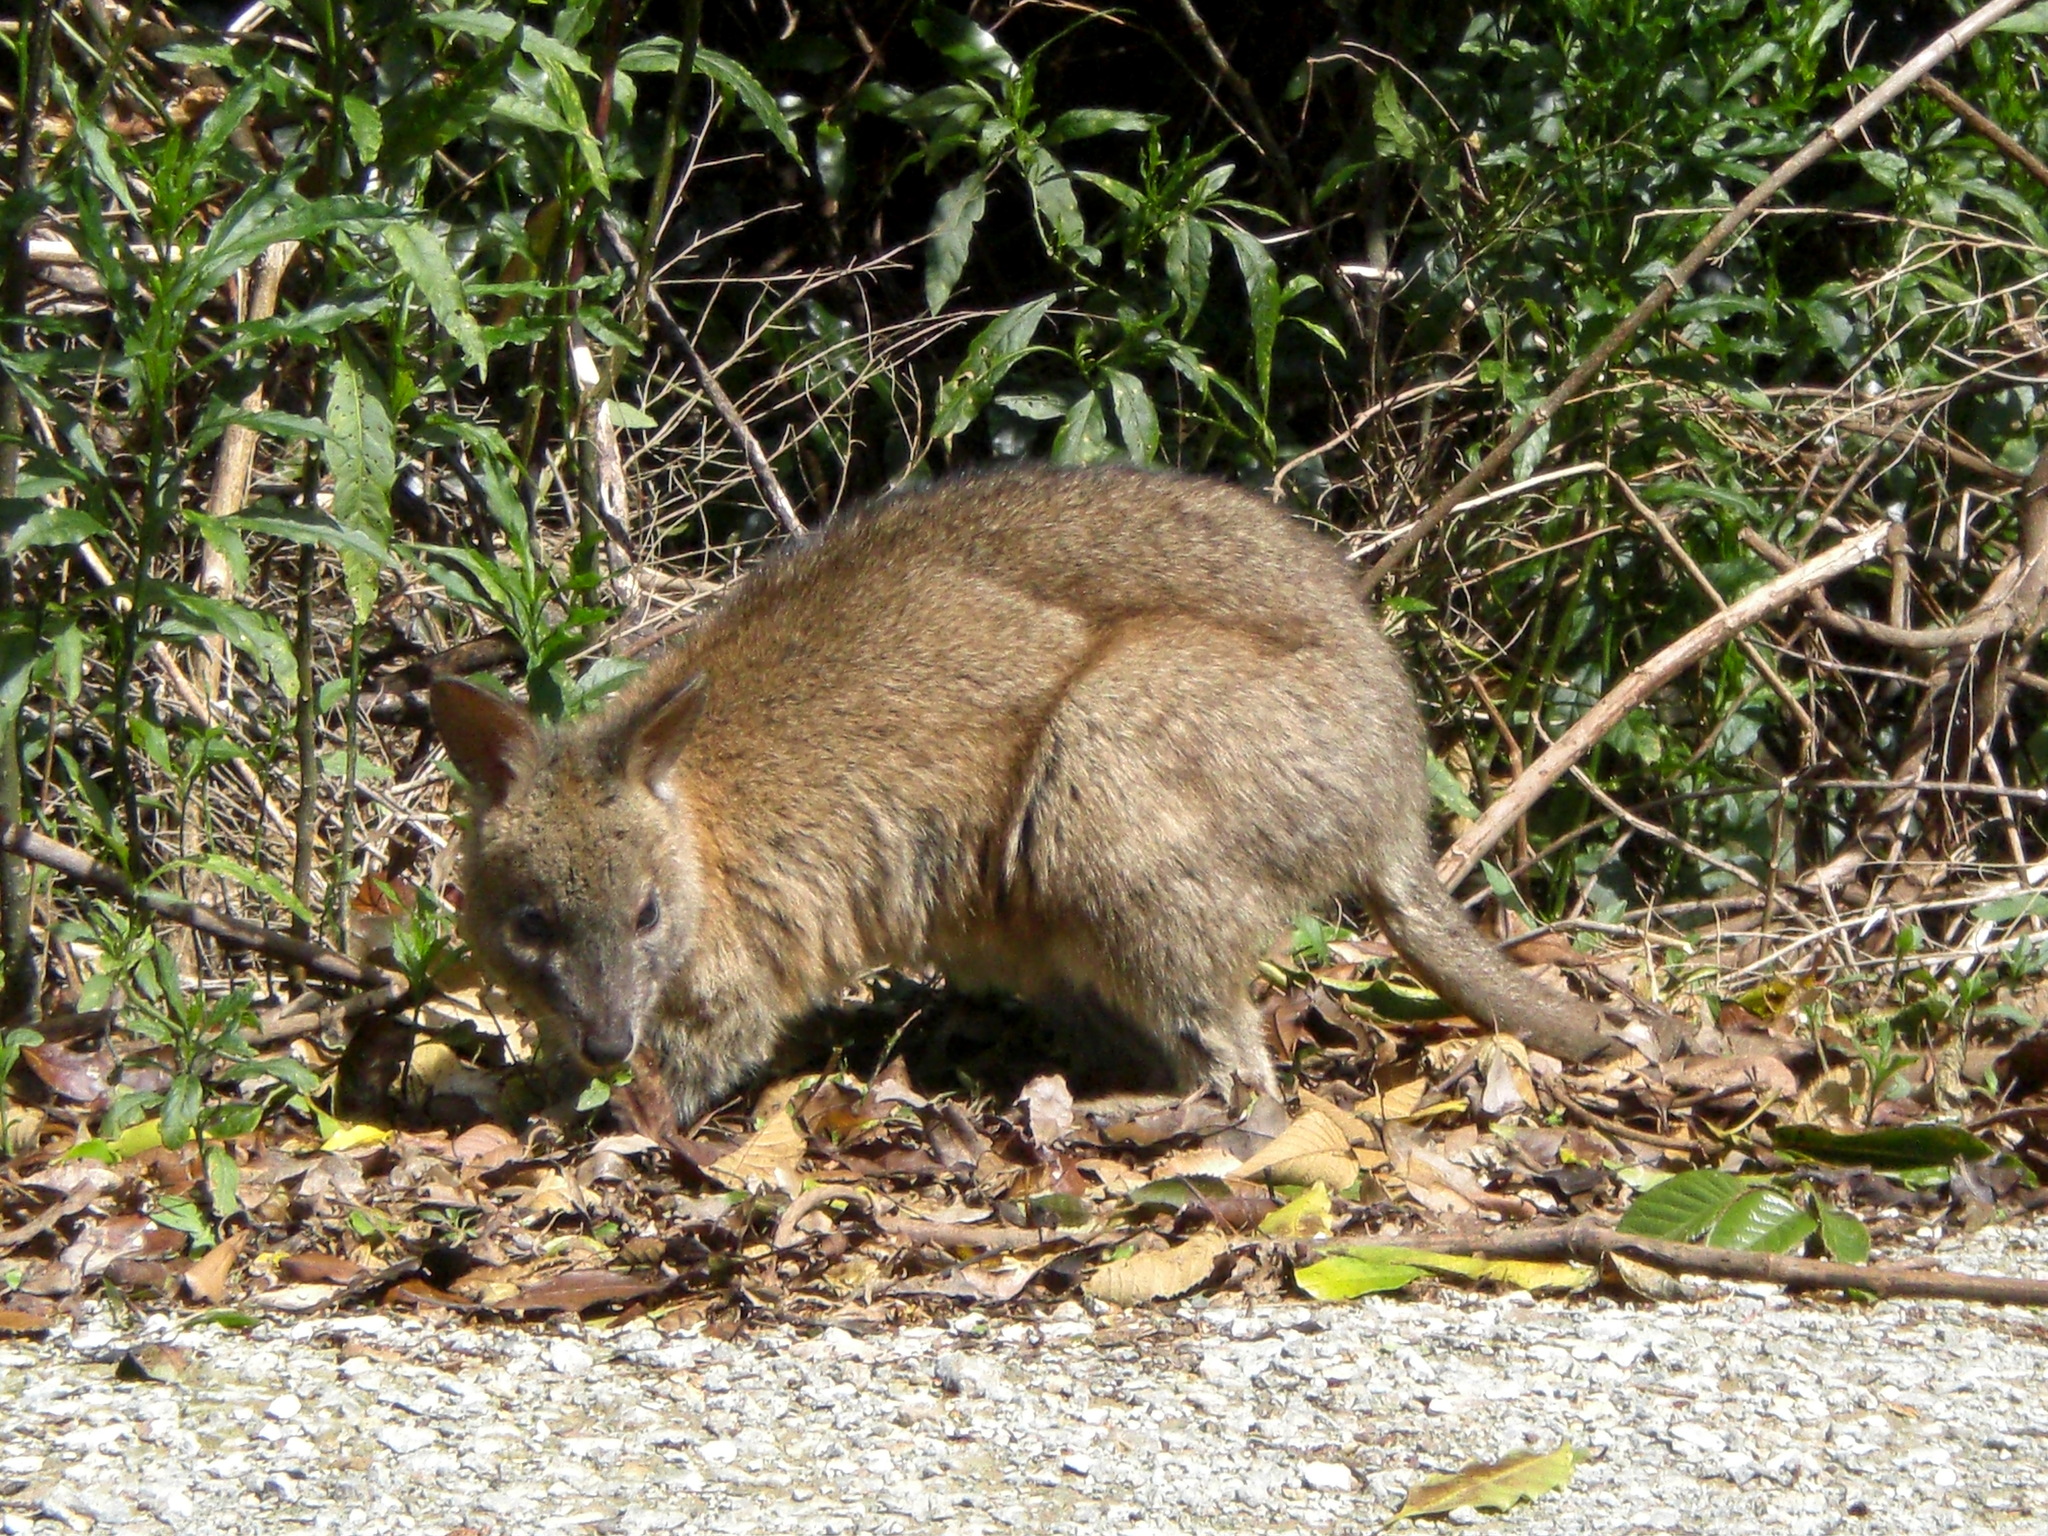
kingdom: Animalia
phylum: Chordata
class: Mammalia
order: Diprotodontia
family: Macropodidae
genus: Thylogale
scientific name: Thylogale thetis
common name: Red-necked pademelon
